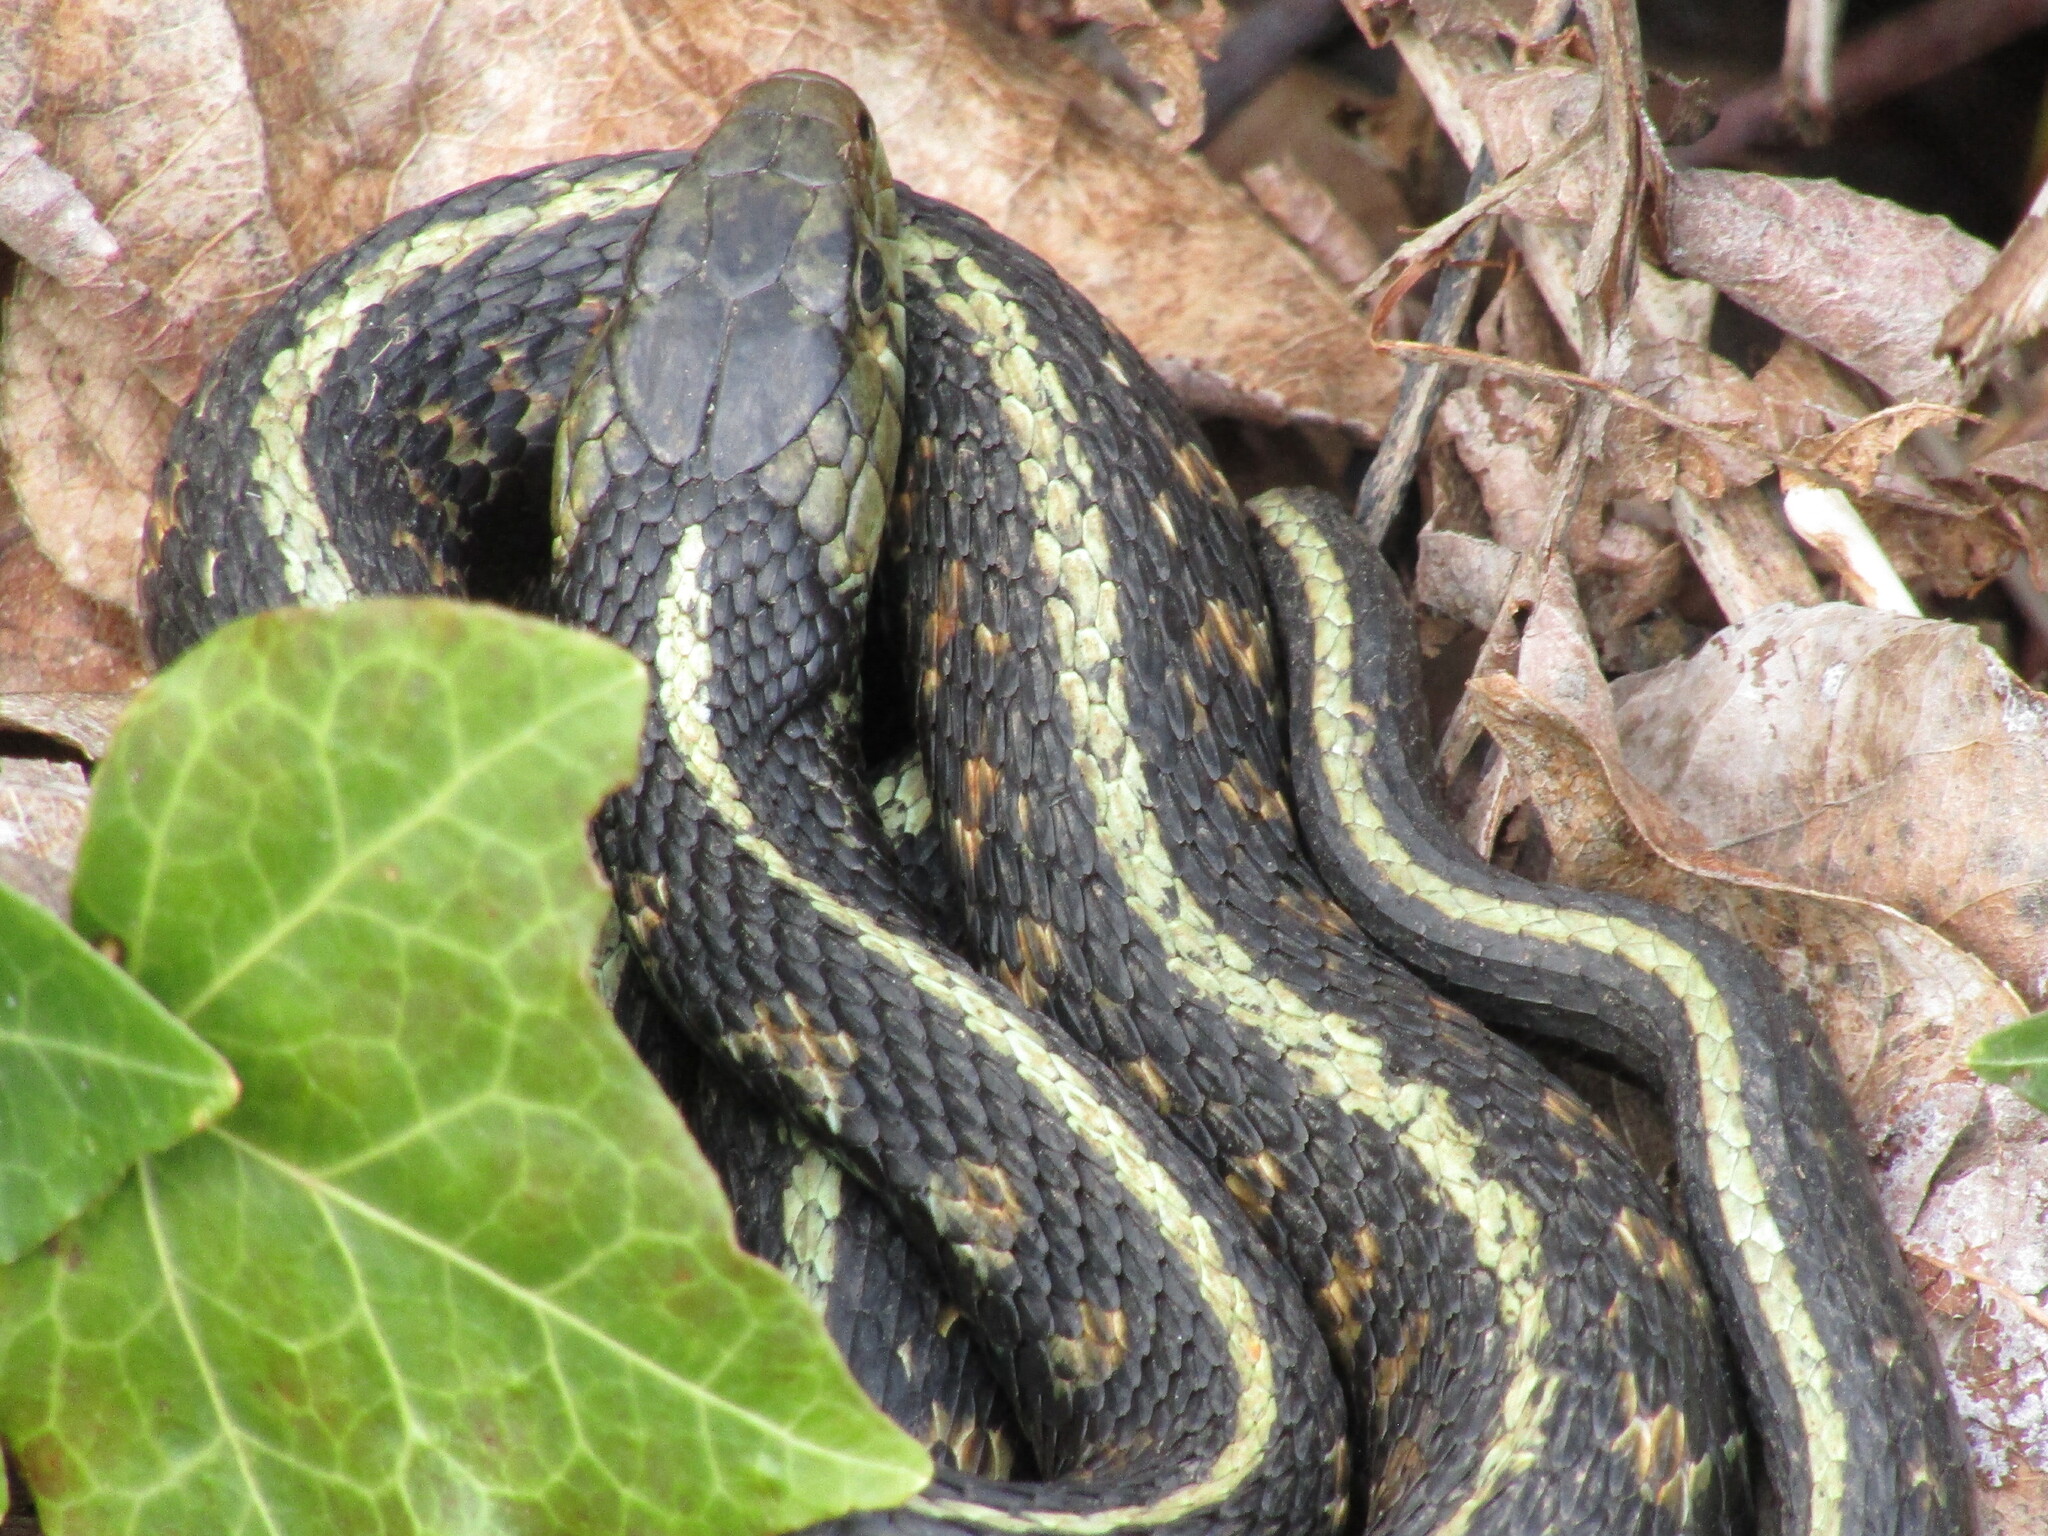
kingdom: Animalia
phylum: Chordata
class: Squamata
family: Colubridae
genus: Thamnophis
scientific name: Thamnophis sirtalis
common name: Common garter snake
